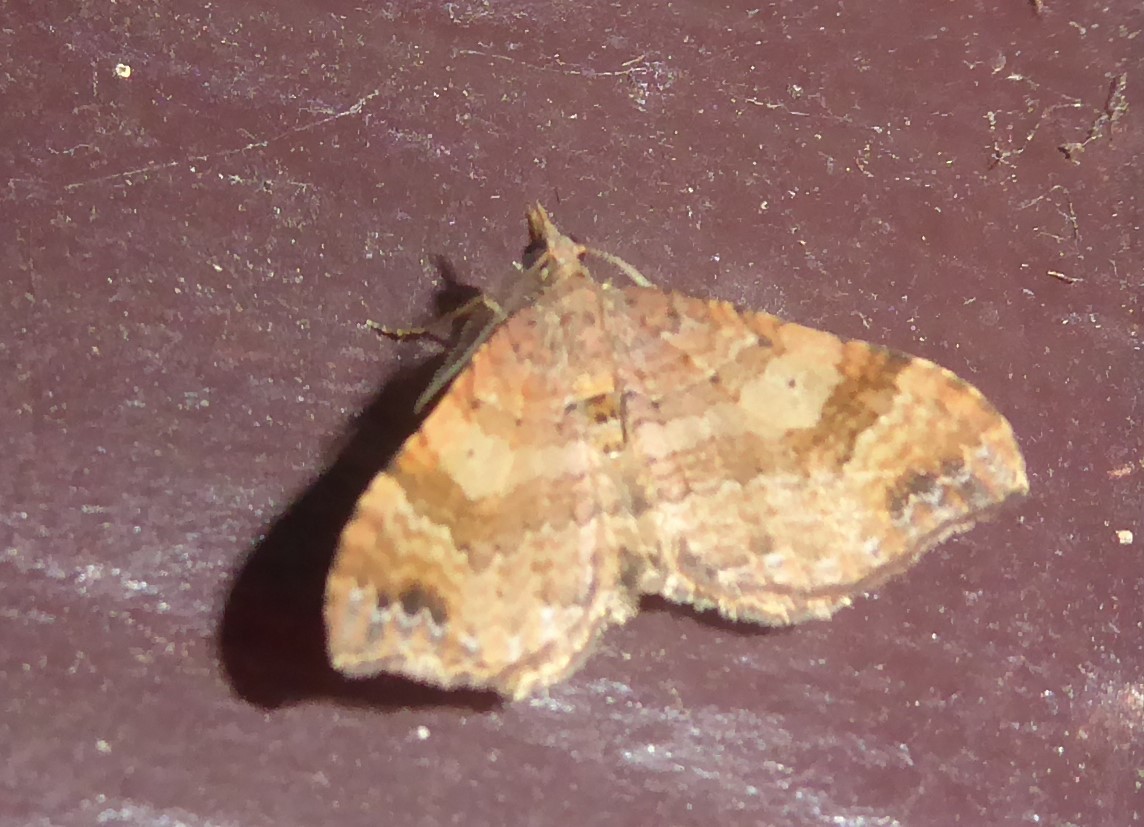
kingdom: Animalia
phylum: Arthropoda
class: Insecta
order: Lepidoptera
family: Geometridae
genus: Homodotis
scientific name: Homodotis megaspilata
